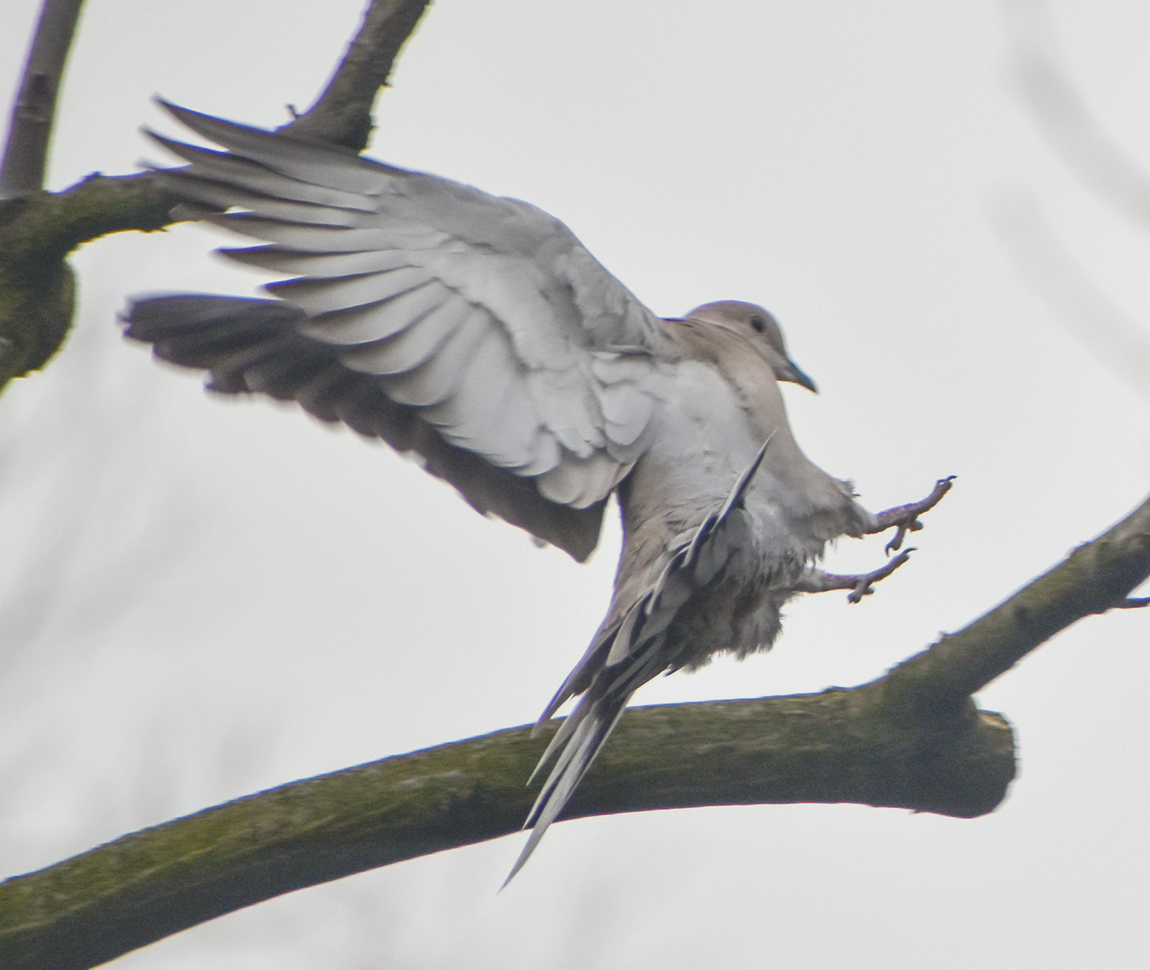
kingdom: Animalia
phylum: Chordata
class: Aves
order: Columbiformes
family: Columbidae
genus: Streptopelia
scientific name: Streptopelia decaocto
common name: Eurasian collared dove
